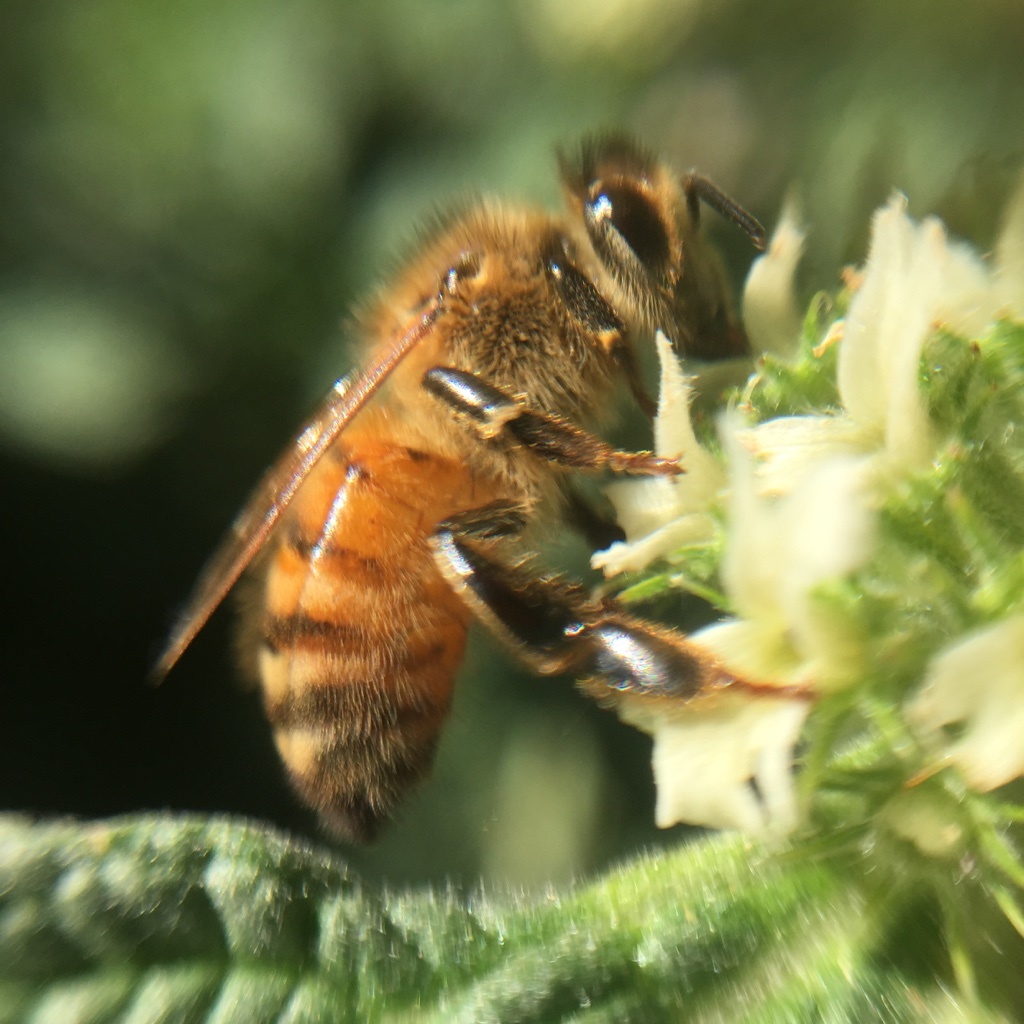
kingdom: Animalia
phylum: Arthropoda
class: Insecta
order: Hymenoptera
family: Apidae
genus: Apis
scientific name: Apis mellifera
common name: Honey bee
